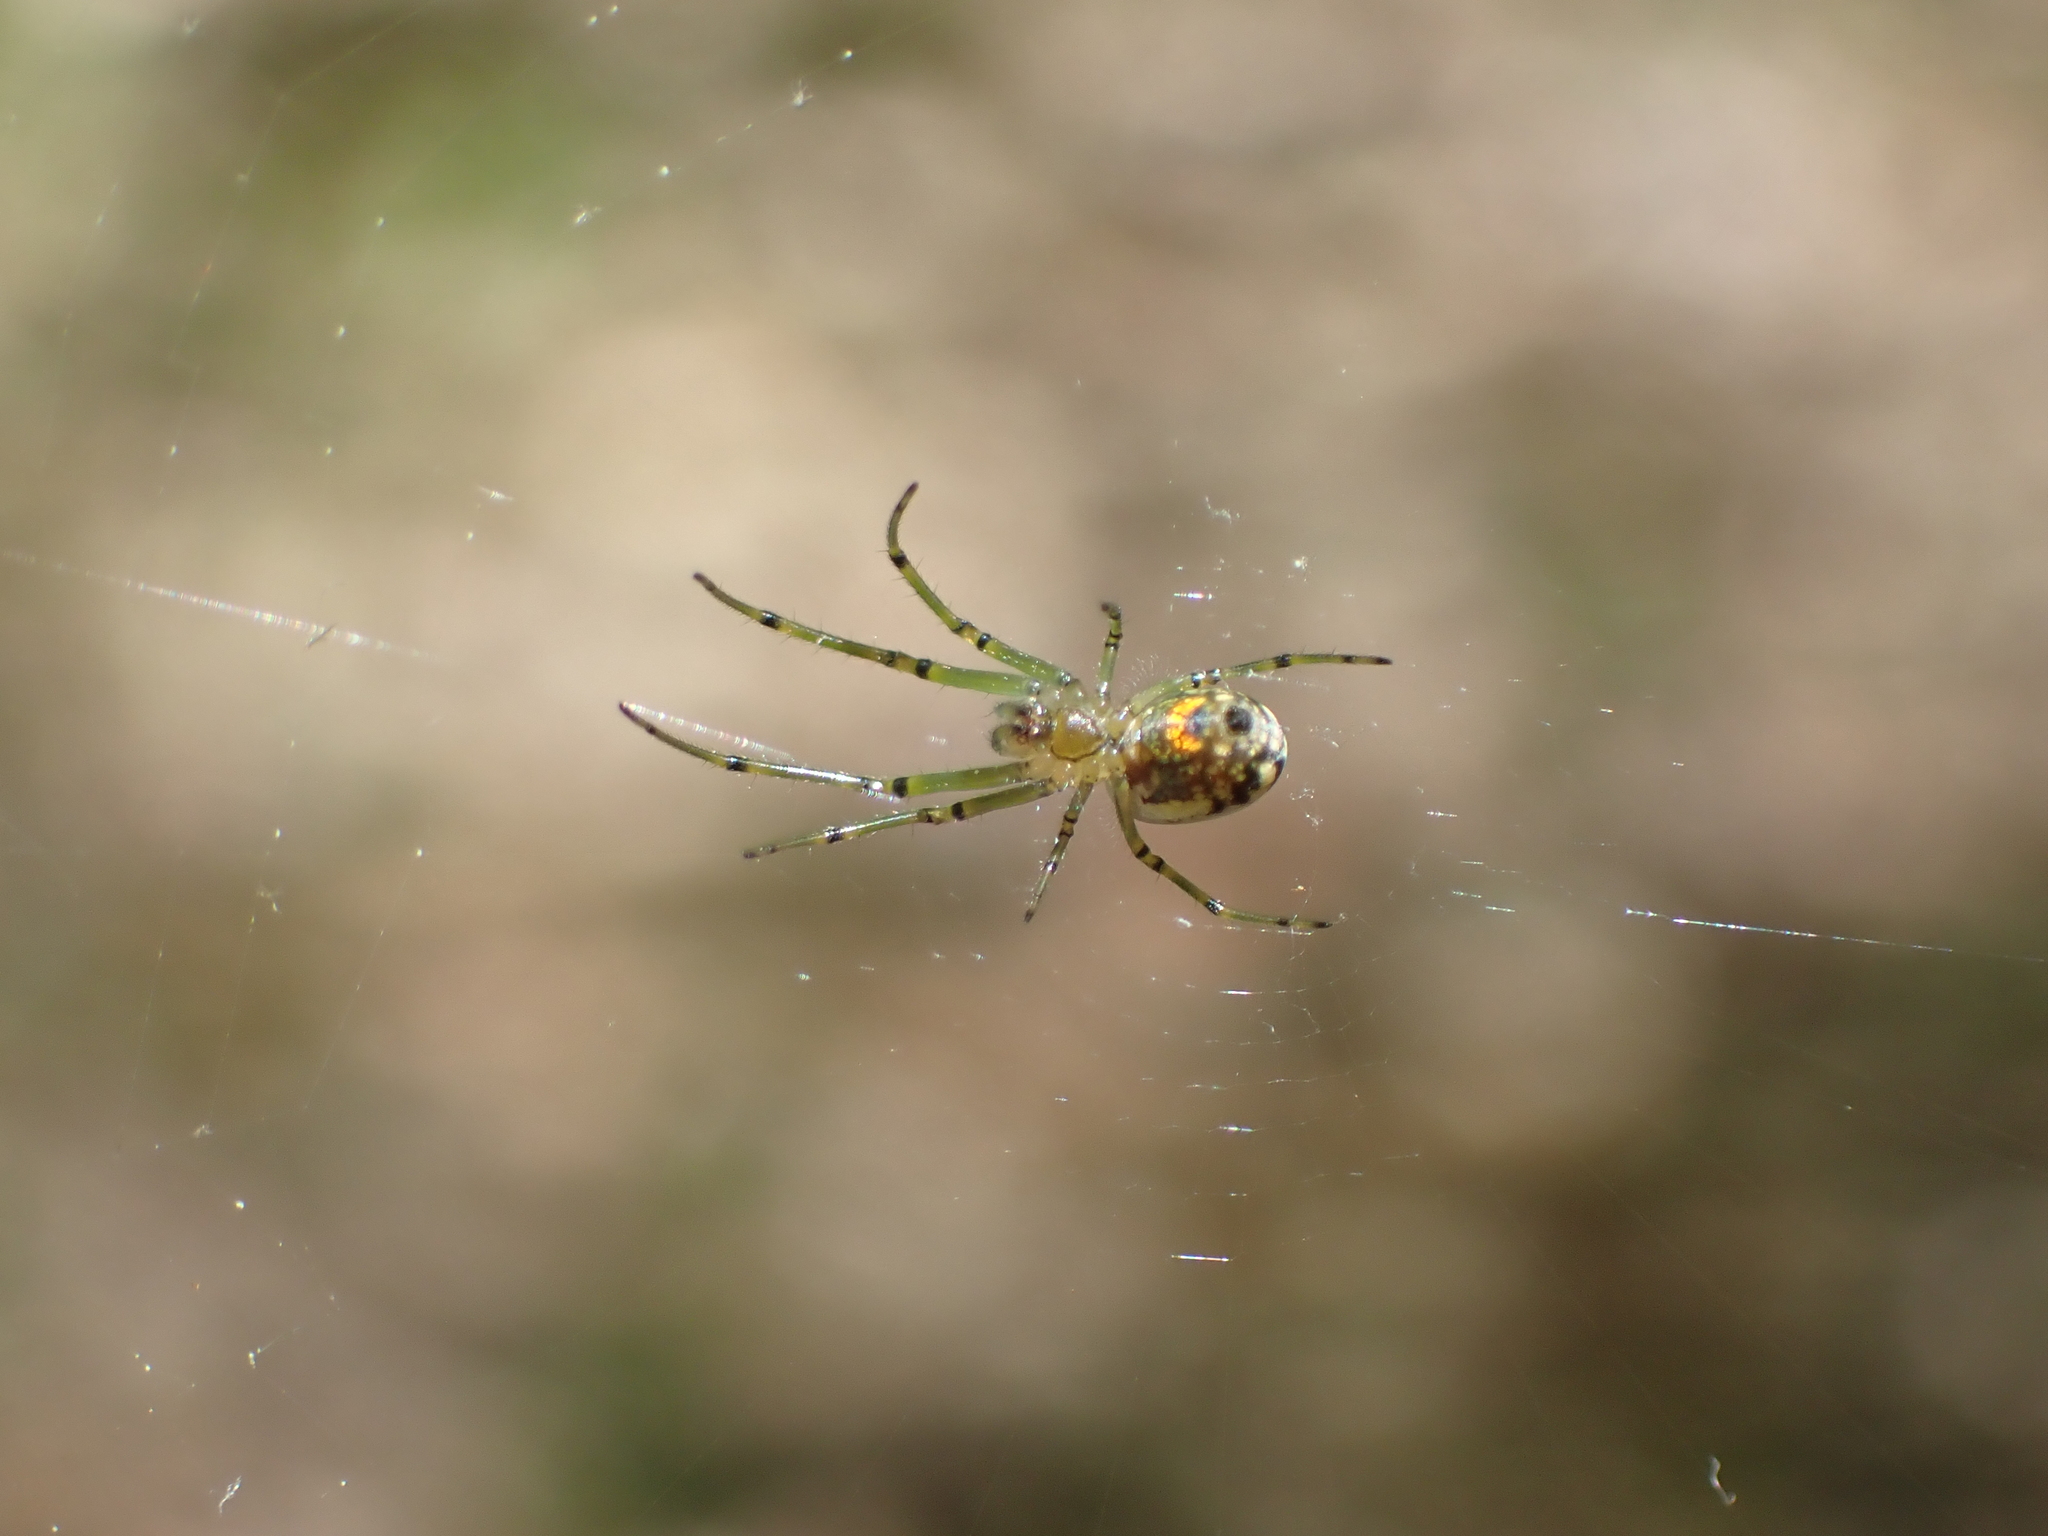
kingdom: Animalia
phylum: Arthropoda
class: Arachnida
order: Araneae
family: Tetragnathidae
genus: Leucauge
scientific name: Leucauge venusta
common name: Longjawed orb weavers
